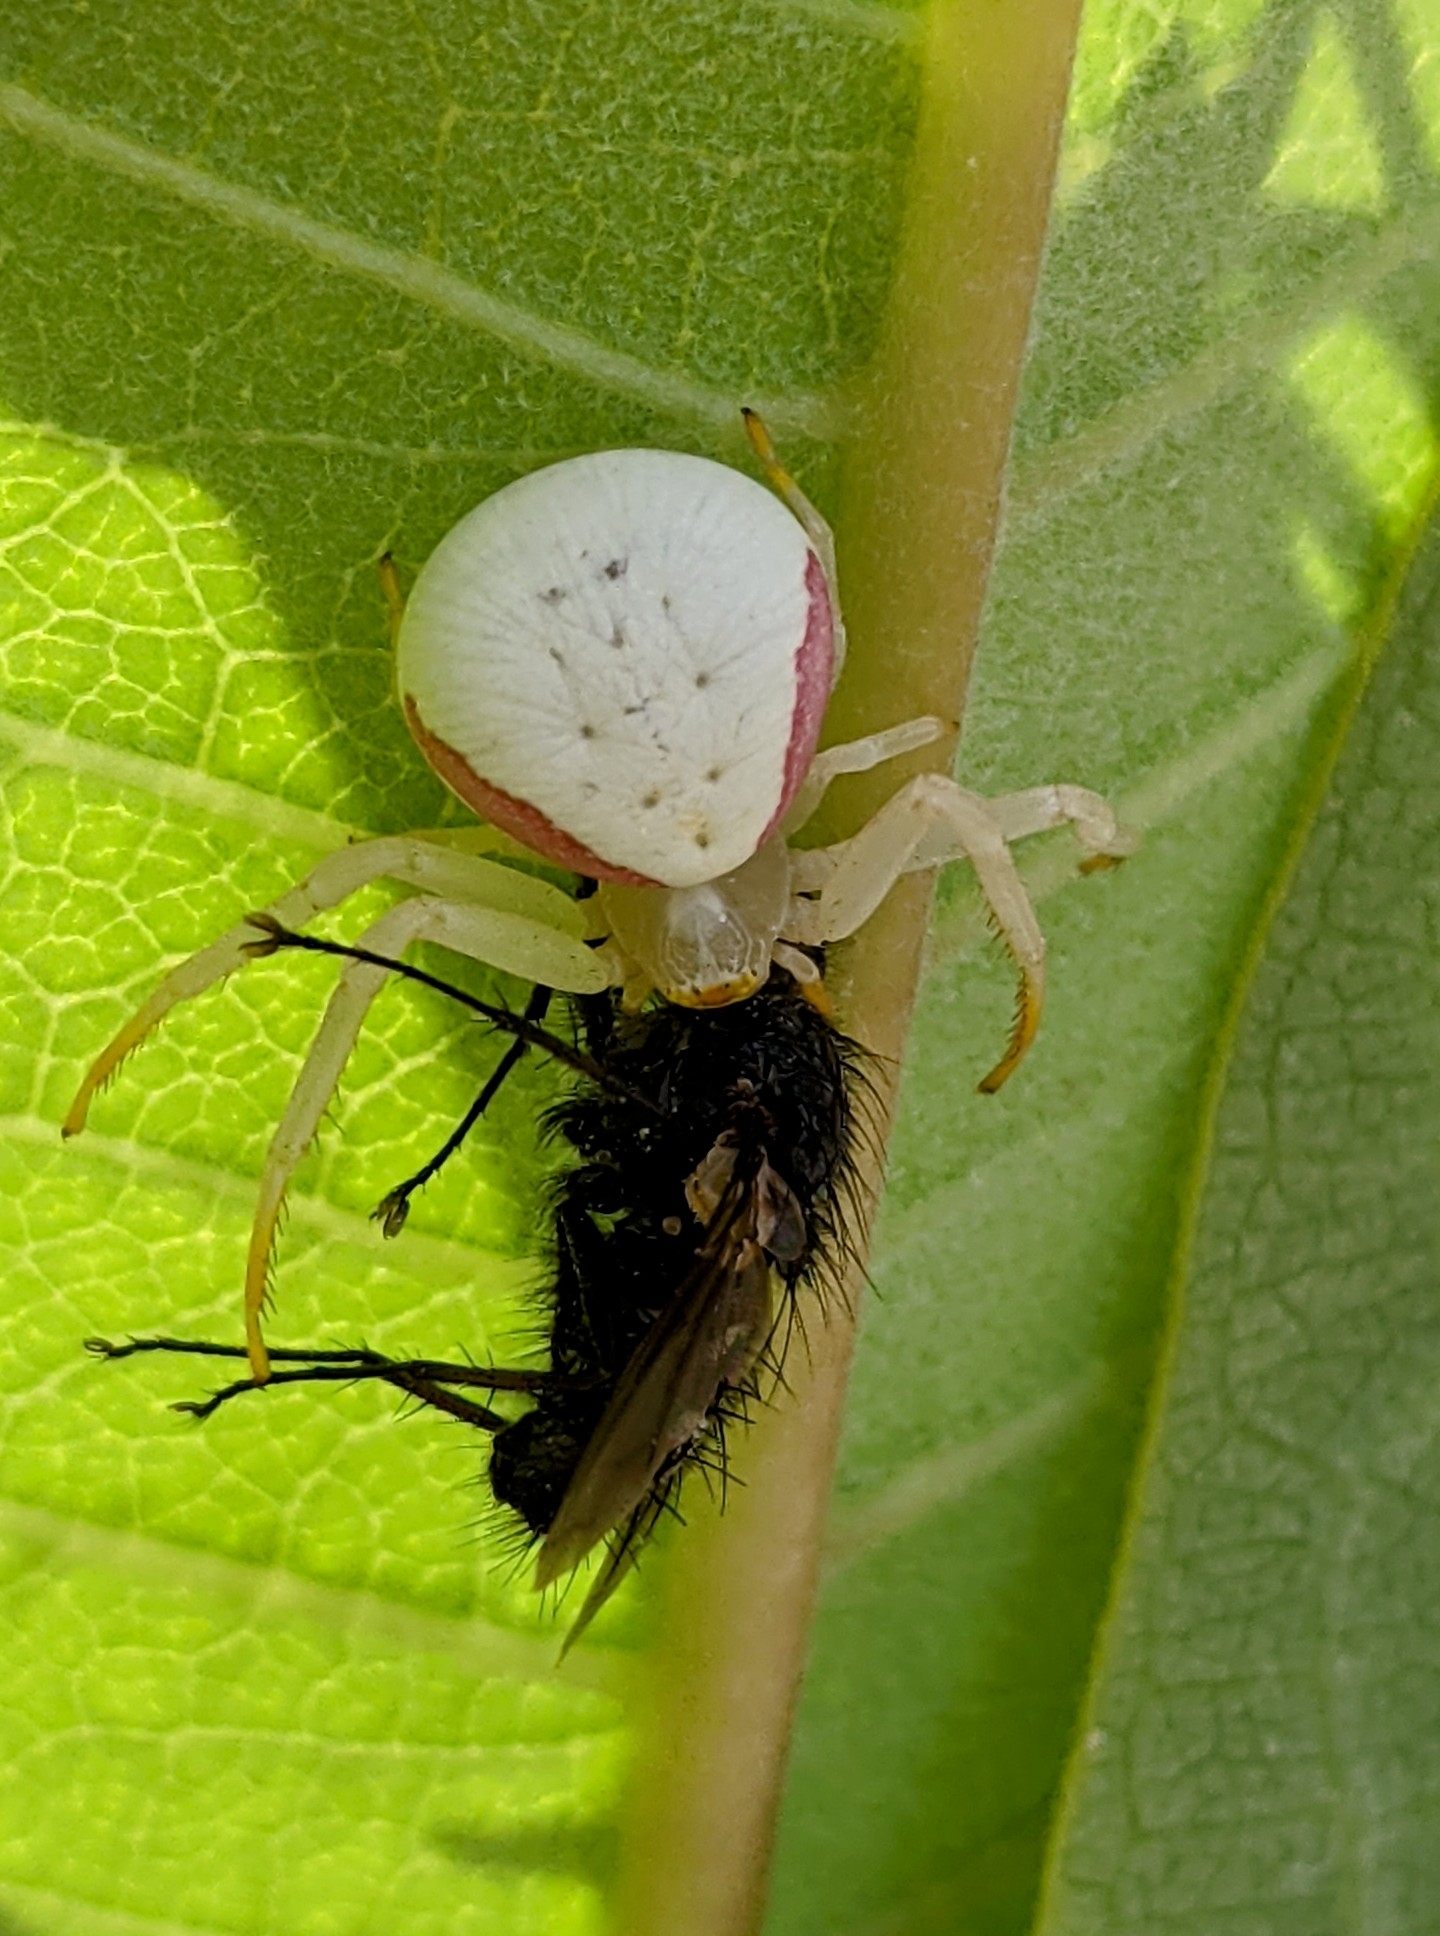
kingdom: Animalia
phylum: Arthropoda
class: Arachnida
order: Araneae
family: Thomisidae
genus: Misumena
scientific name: Misumena vatia
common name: Goldenrod crab spider
